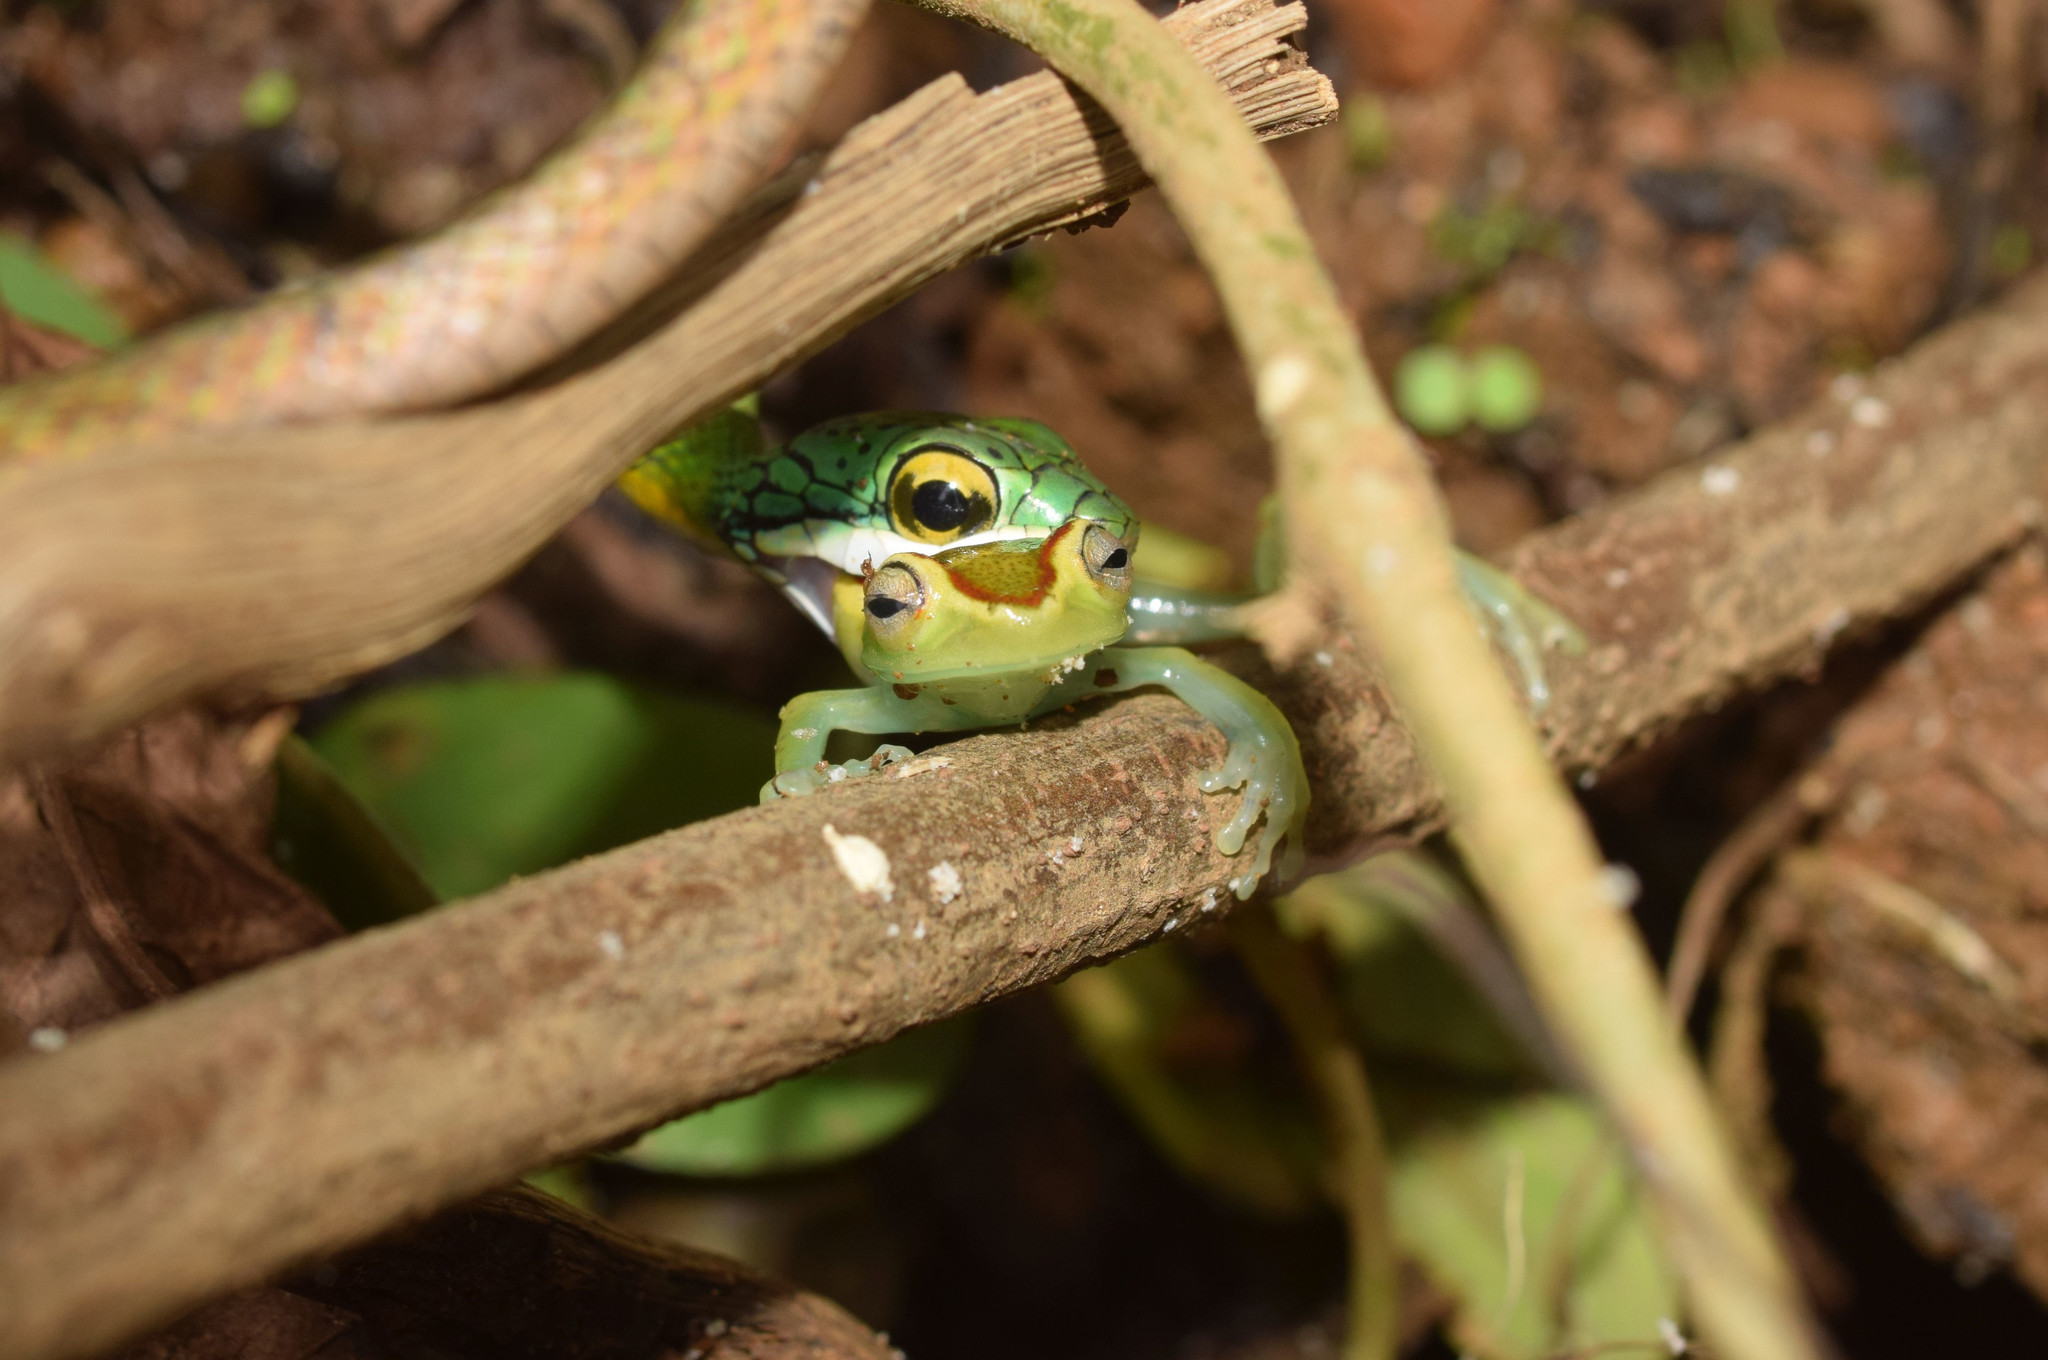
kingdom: Animalia
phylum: Chordata
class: Squamata
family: Colubridae
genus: Leptophis
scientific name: Leptophis ahaetulla
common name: Parrot snake
